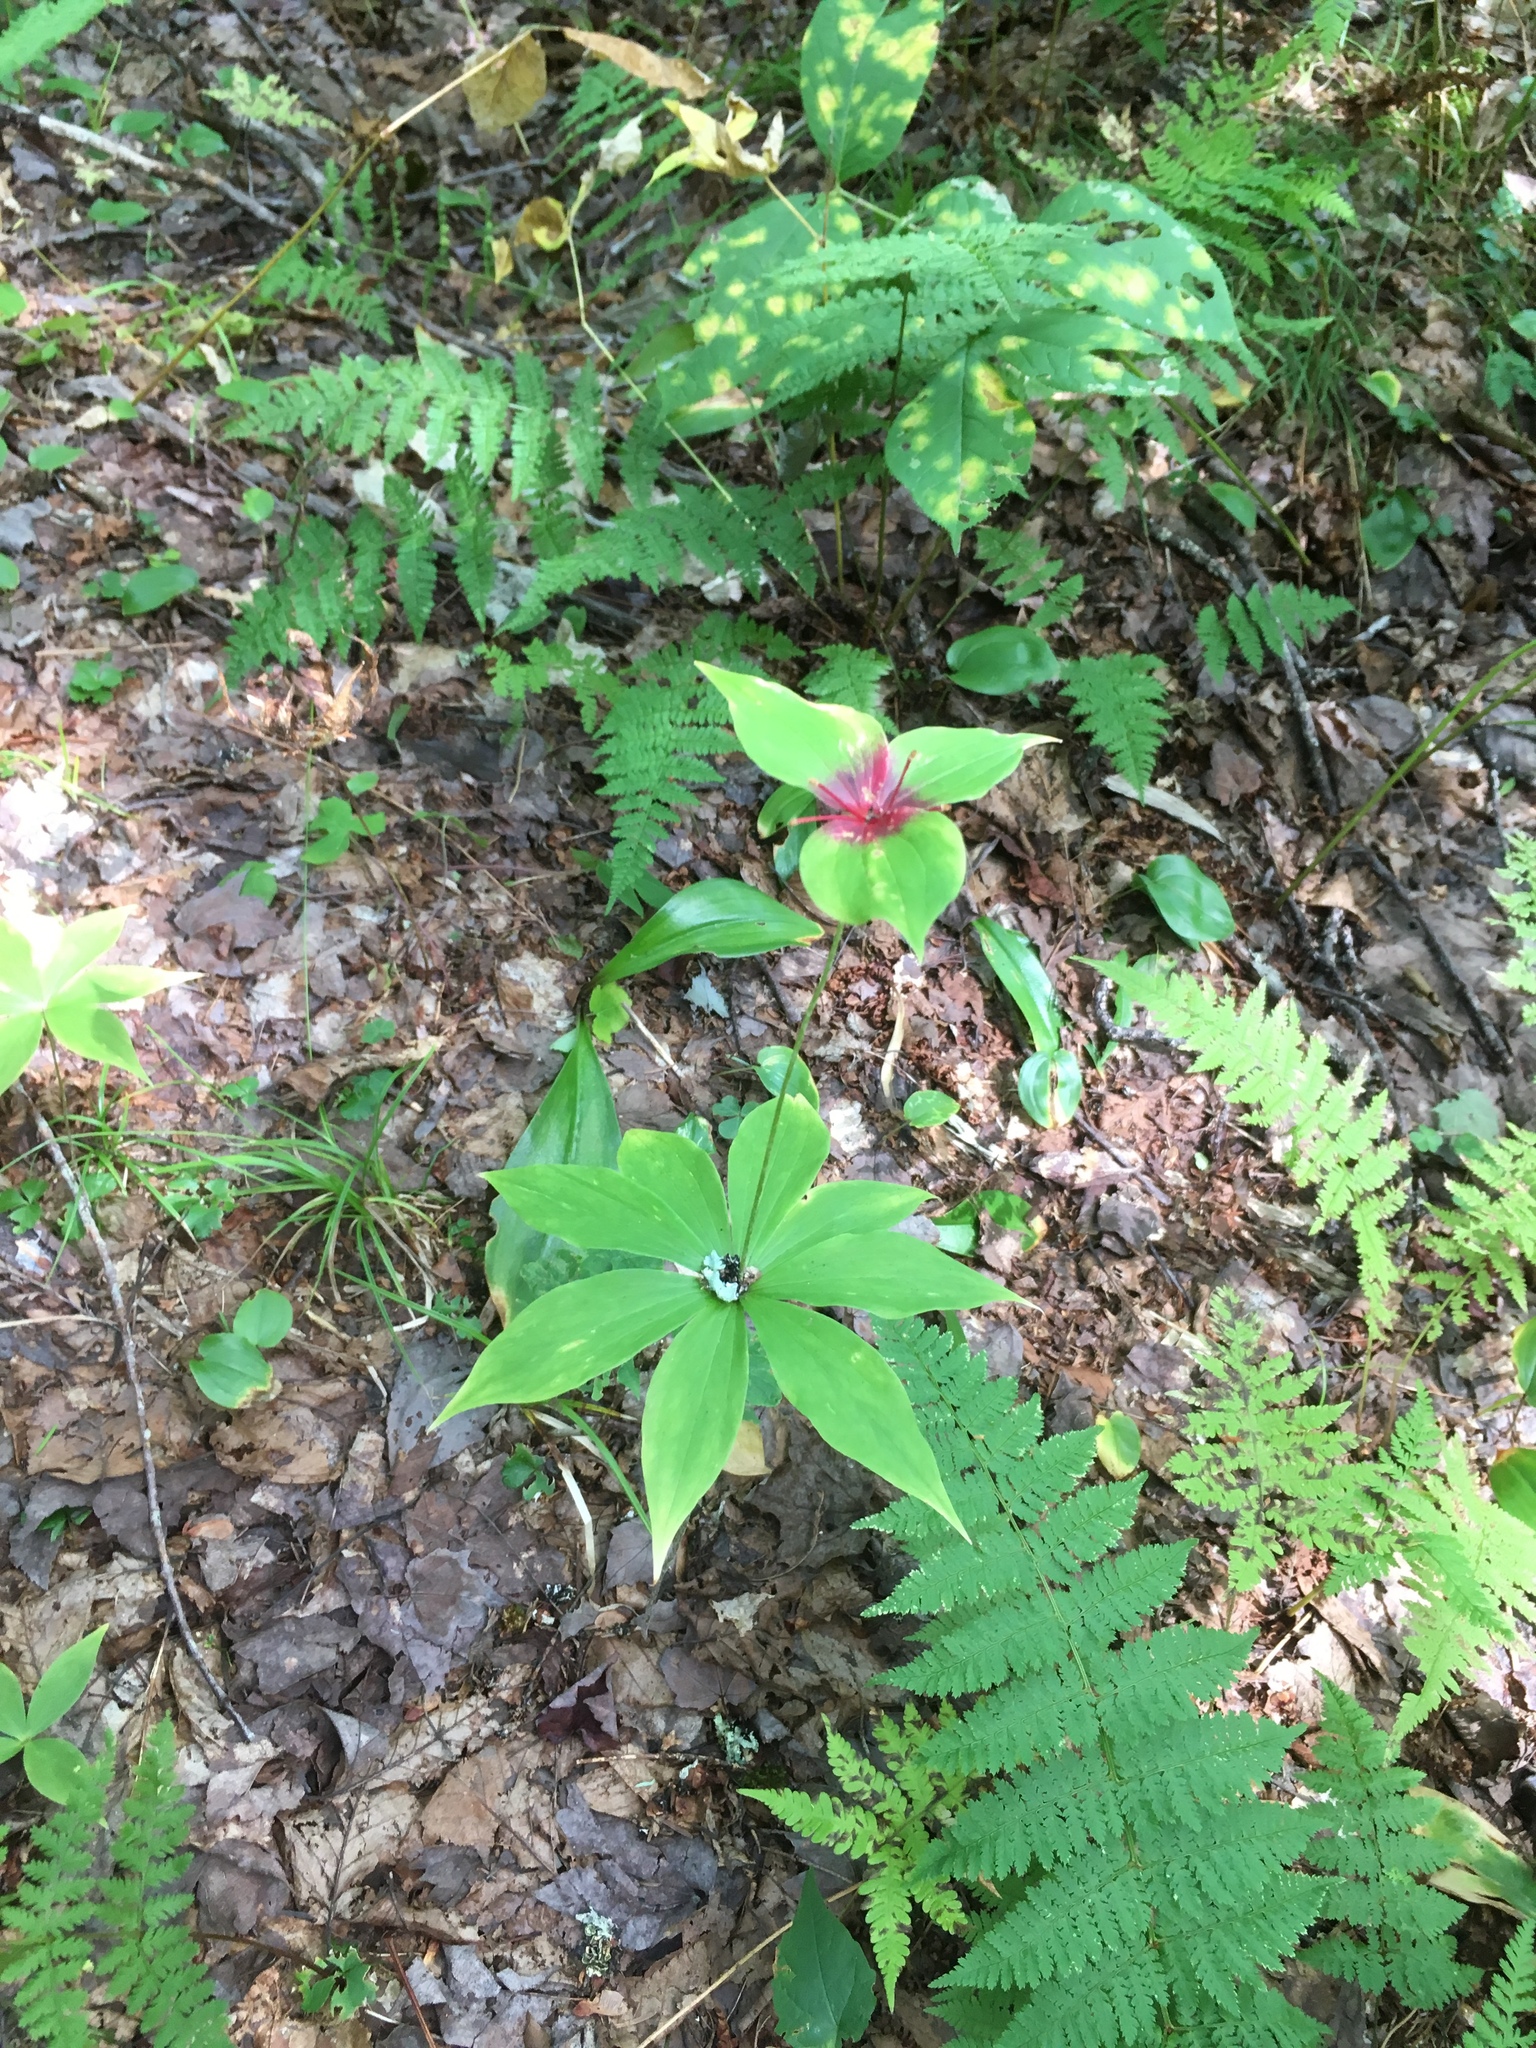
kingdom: Plantae
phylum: Tracheophyta
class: Liliopsida
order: Liliales
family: Liliaceae
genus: Medeola
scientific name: Medeola virginiana
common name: Indian cucumber-root
